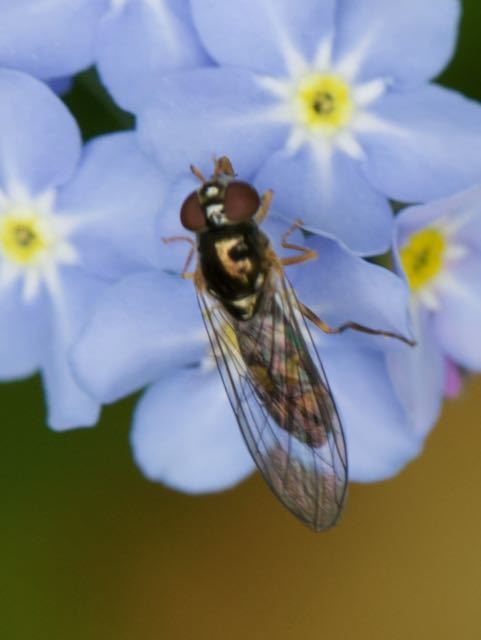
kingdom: Animalia
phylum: Arthropoda
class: Insecta
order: Diptera
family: Syrphidae
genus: Melanostoma
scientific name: Melanostoma scalare
